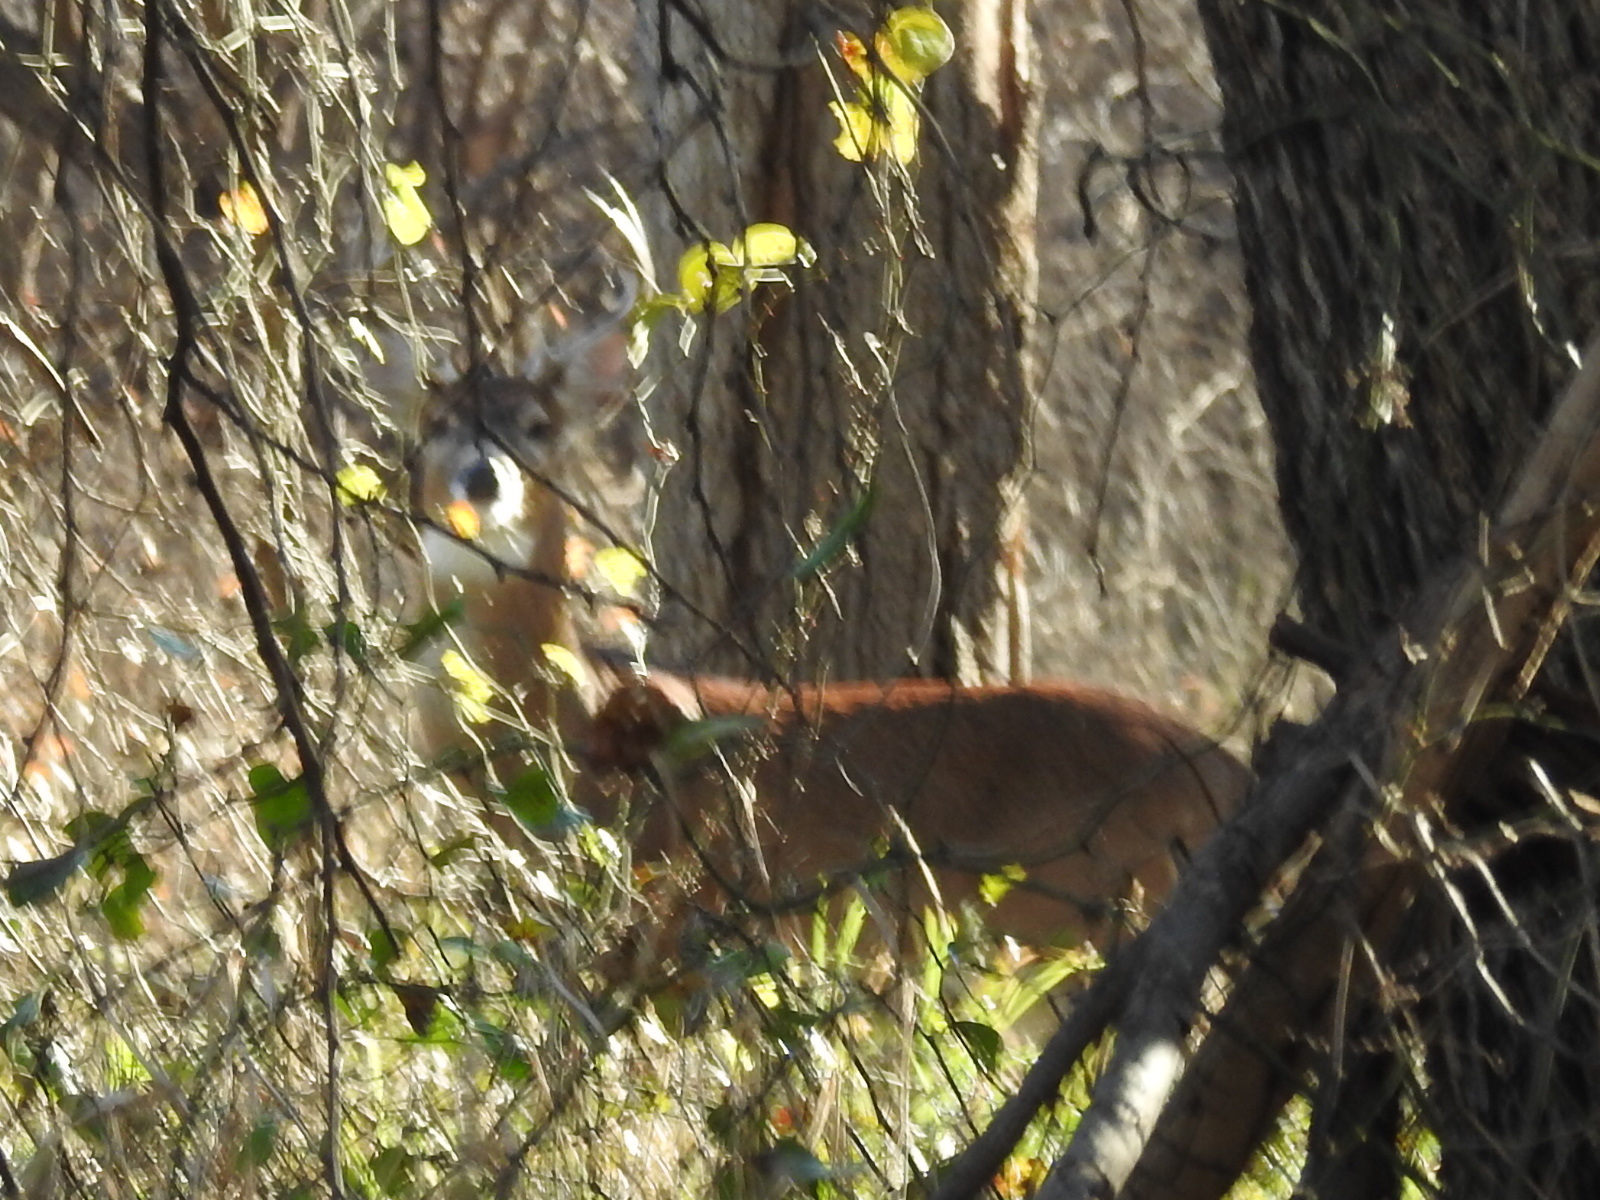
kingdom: Animalia
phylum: Chordata
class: Mammalia
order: Artiodactyla
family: Cervidae
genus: Odocoileus
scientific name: Odocoileus virginianus
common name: White-tailed deer
